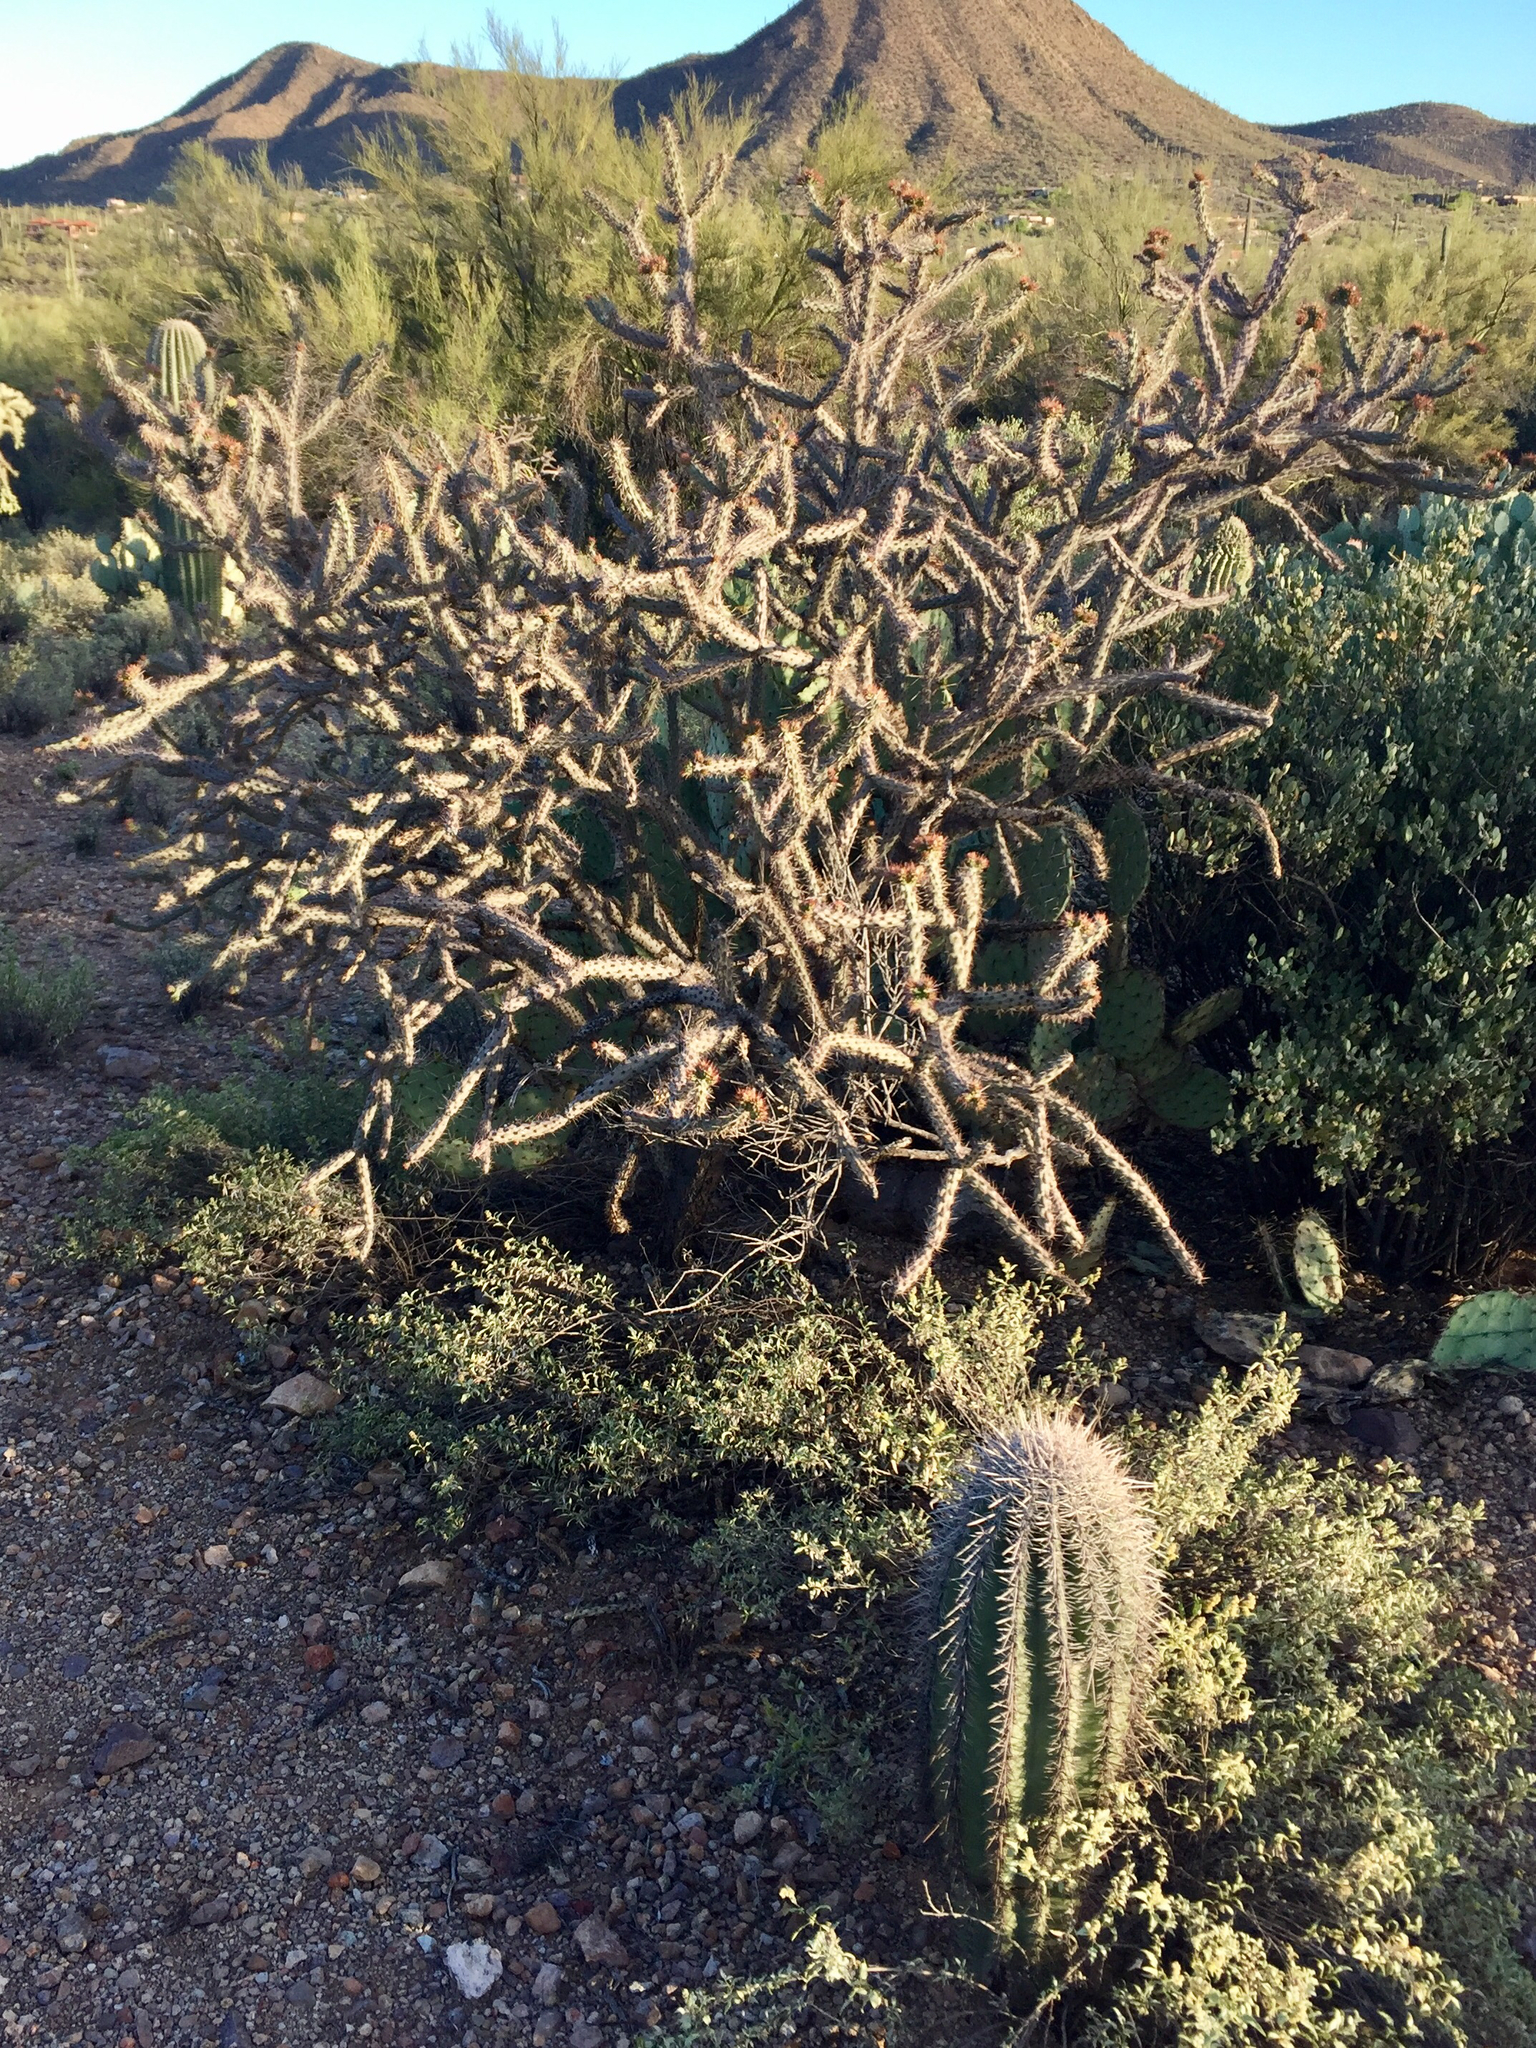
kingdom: Plantae
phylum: Tracheophyta
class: Magnoliopsida
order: Caryophyllales
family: Cactaceae
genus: Cylindropuntia
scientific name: Cylindropuntia acanthocarpa
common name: Buckhorn cholla
